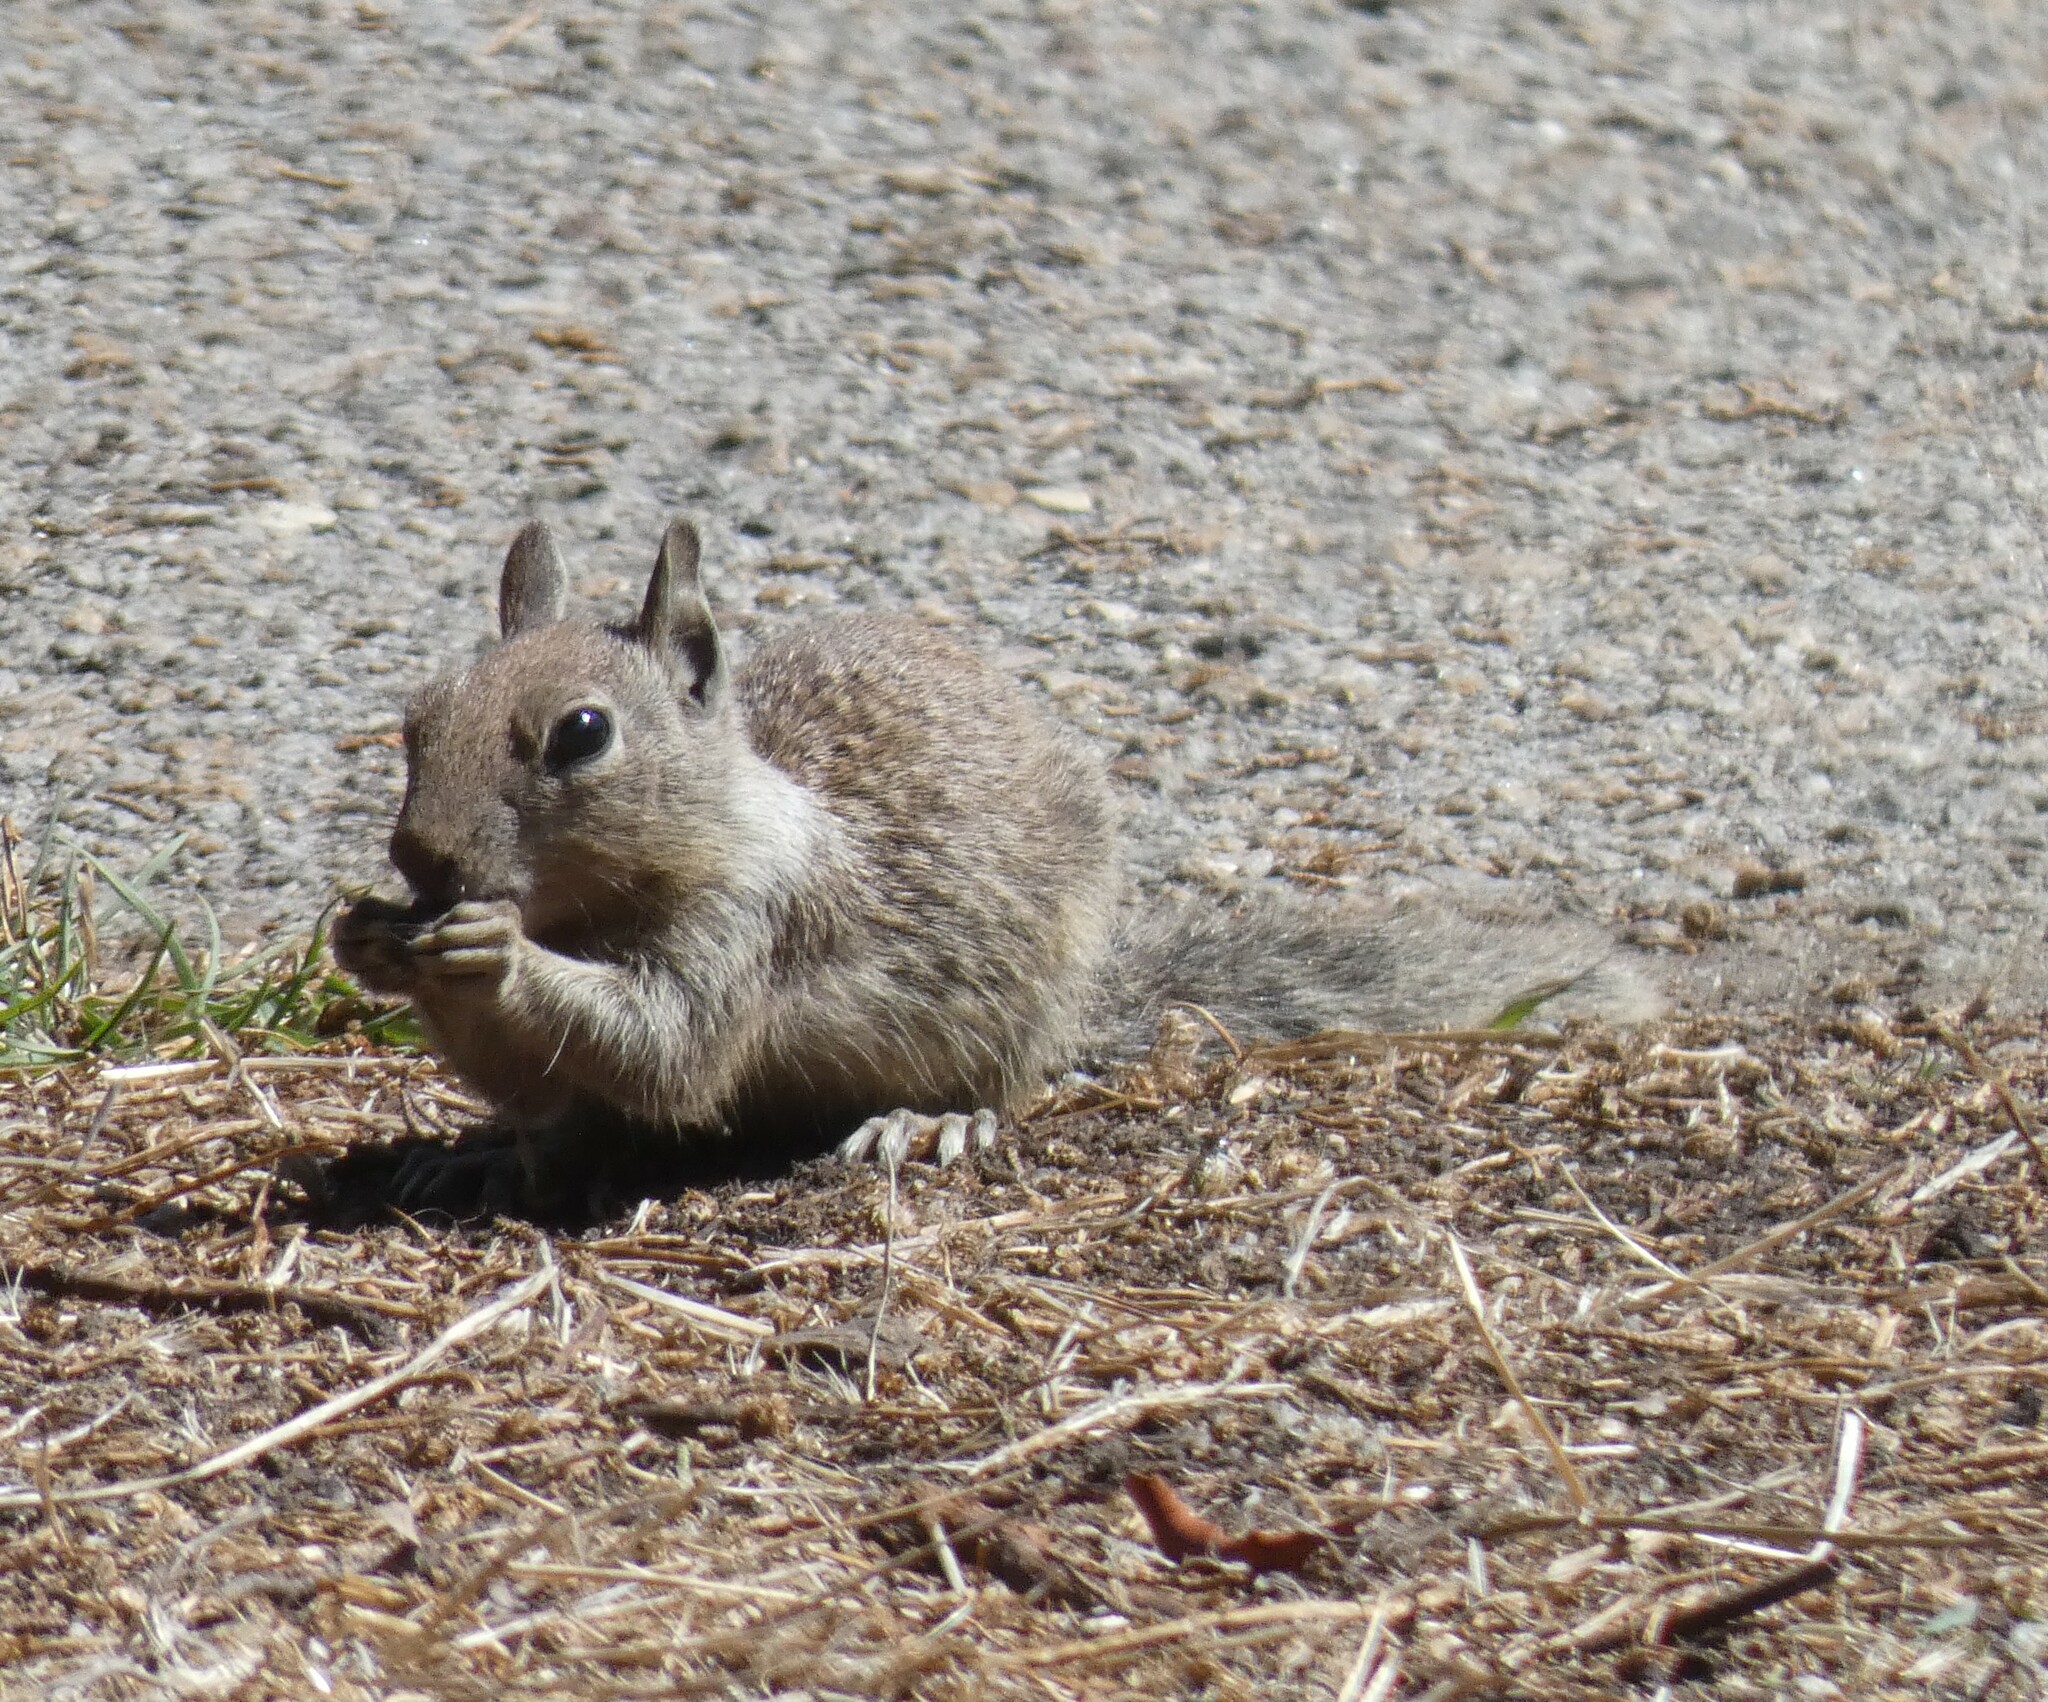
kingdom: Animalia
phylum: Chordata
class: Mammalia
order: Rodentia
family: Sciuridae
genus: Otospermophilus
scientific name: Otospermophilus beecheyi
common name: California ground squirrel
